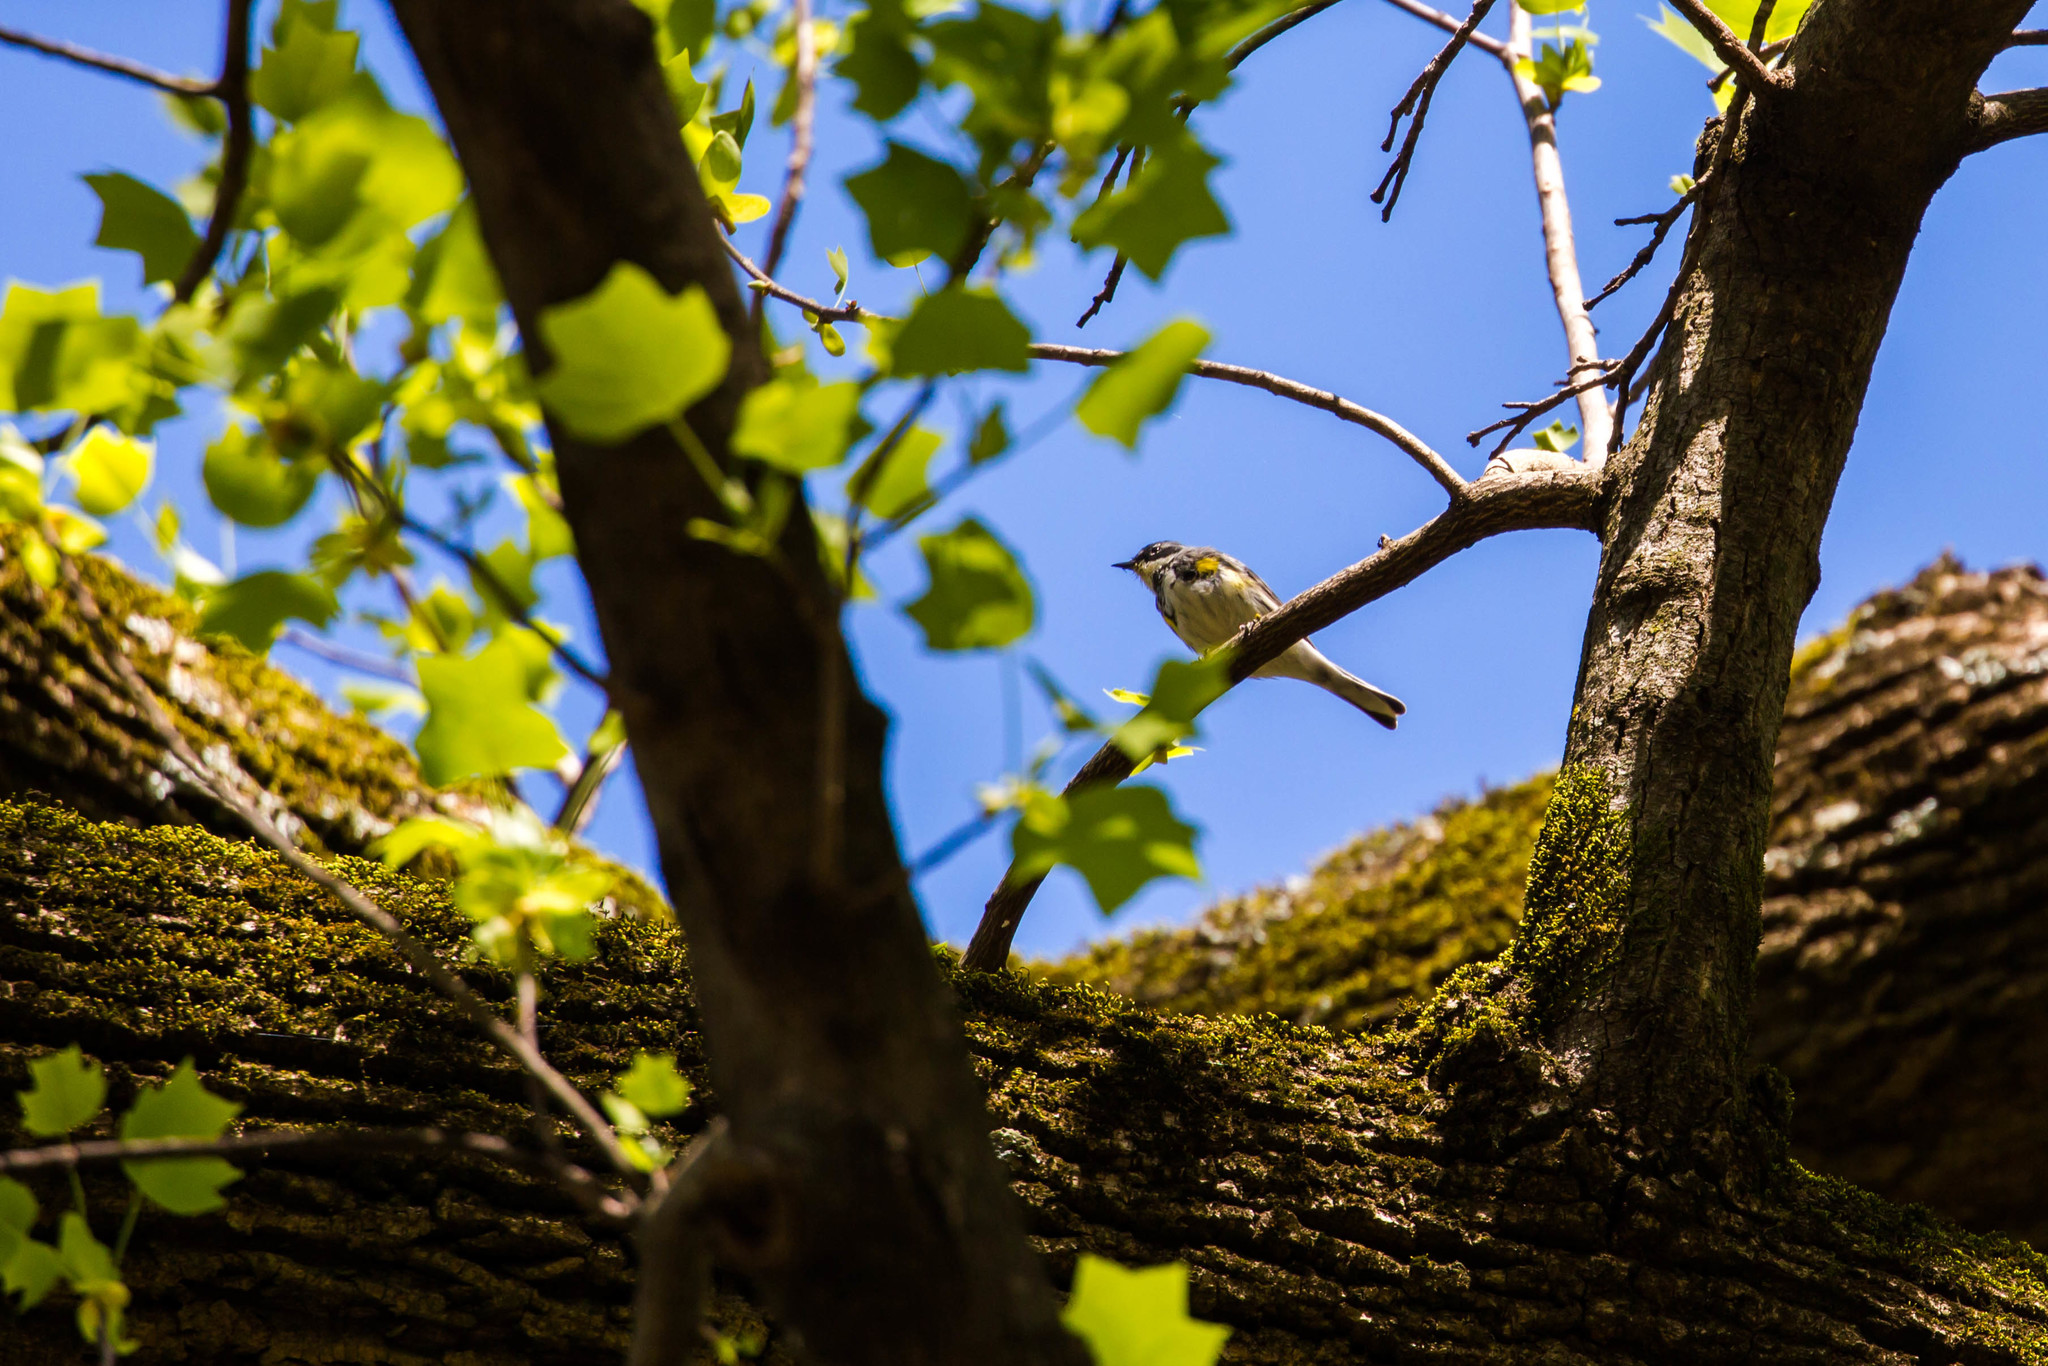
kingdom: Animalia
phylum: Chordata
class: Aves
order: Passeriformes
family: Parulidae
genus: Setophaga
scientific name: Setophaga coronata
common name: Myrtle warbler
